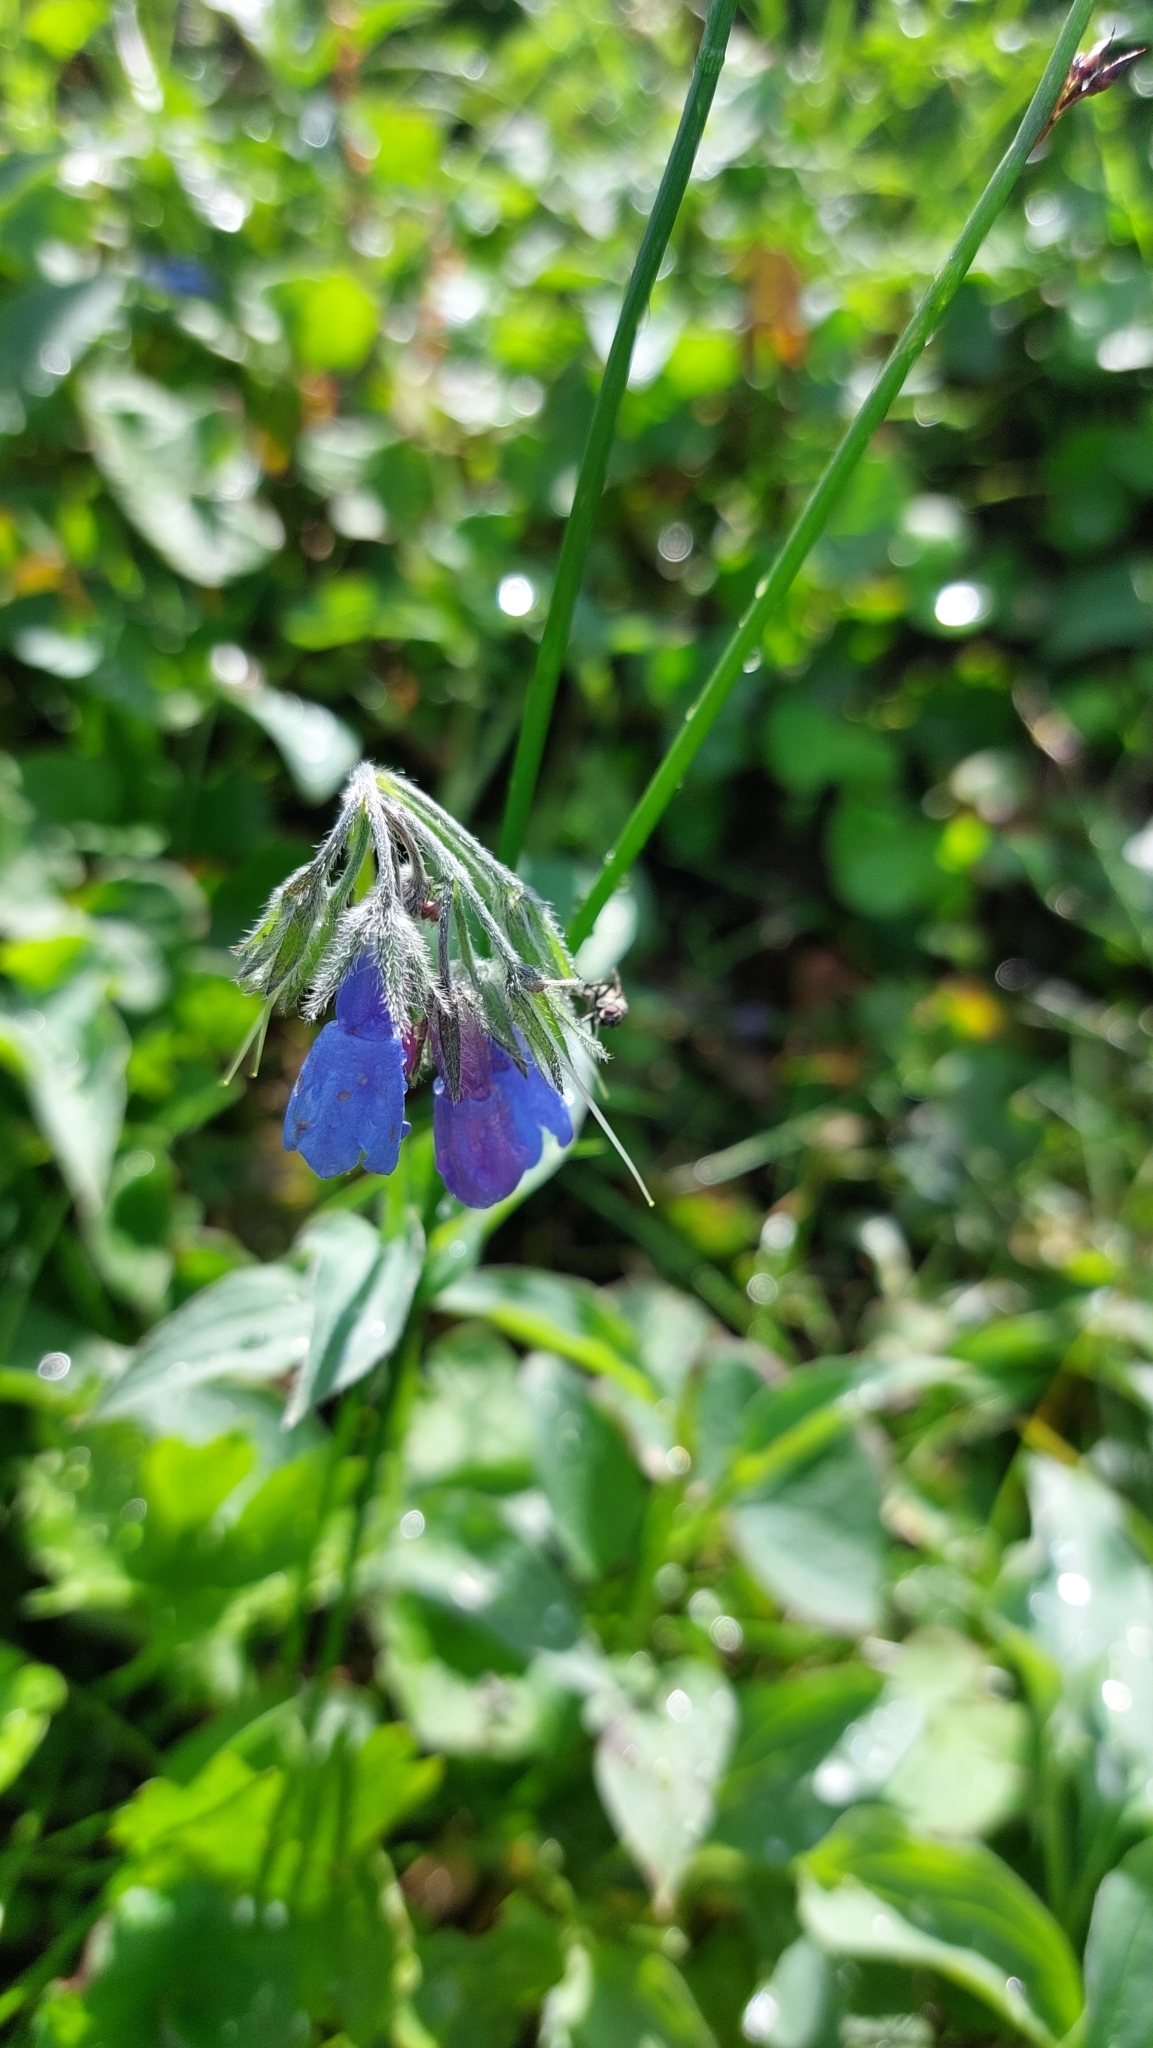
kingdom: Plantae
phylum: Tracheophyta
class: Magnoliopsida
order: Boraginales
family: Boraginaceae
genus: Mertensia
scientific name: Mertensia kamczatica
